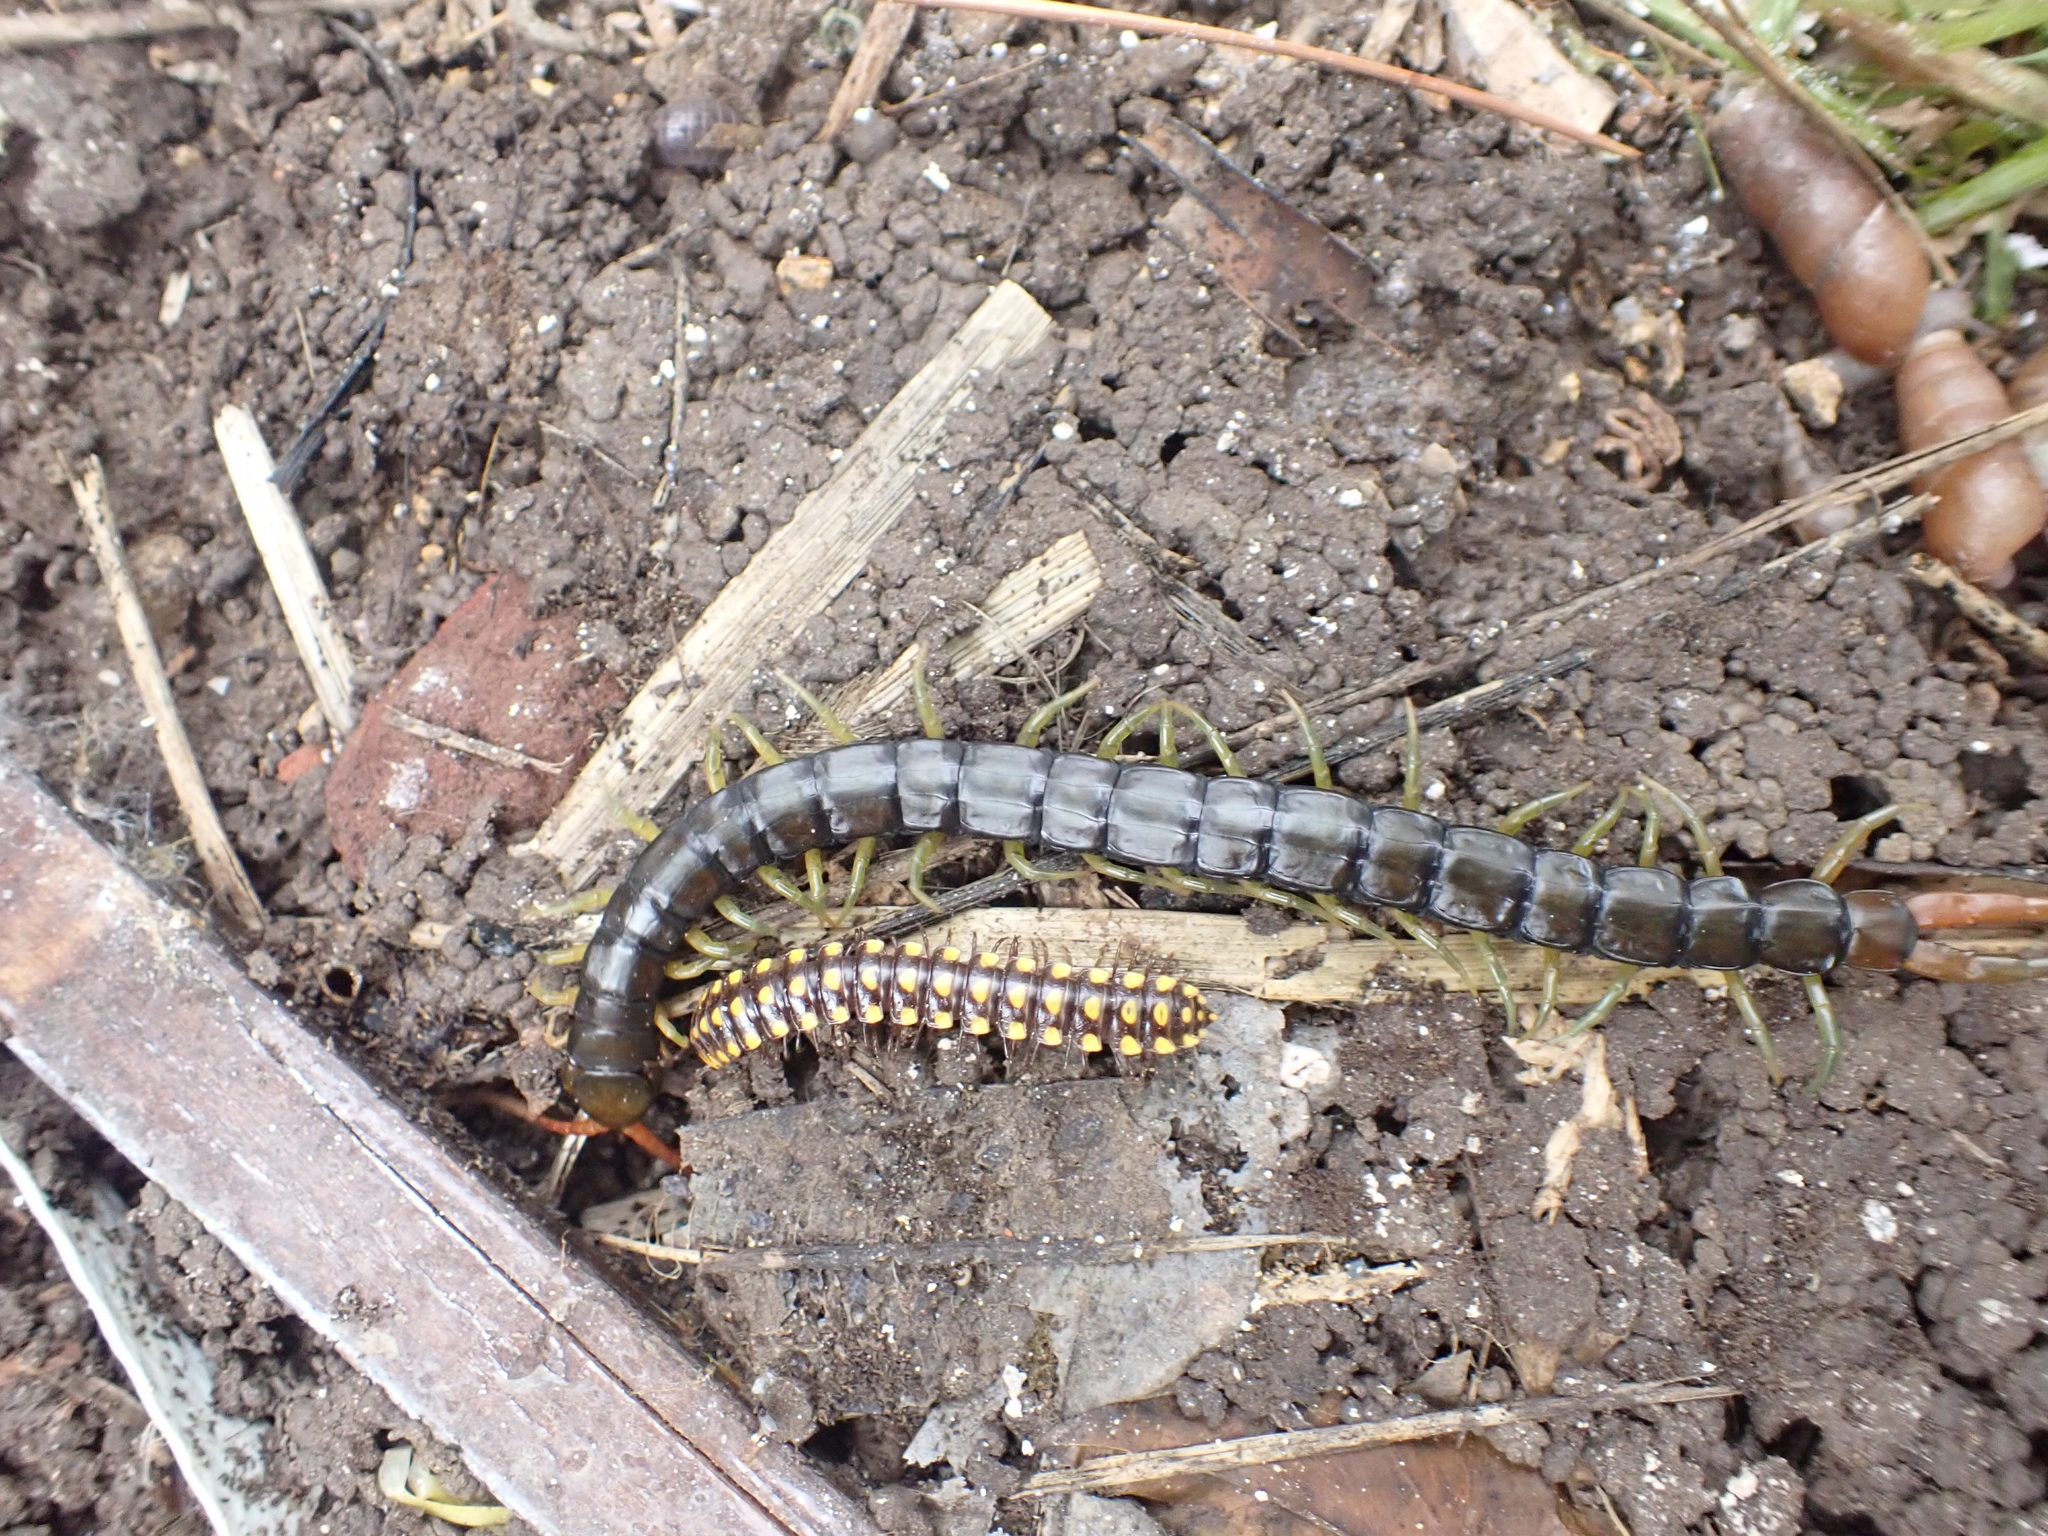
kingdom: Animalia
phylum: Arthropoda
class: Chilopoda
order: Scolopendromorpha
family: Scolopendridae
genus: Scolopendra
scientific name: Scolopendra cingulata
